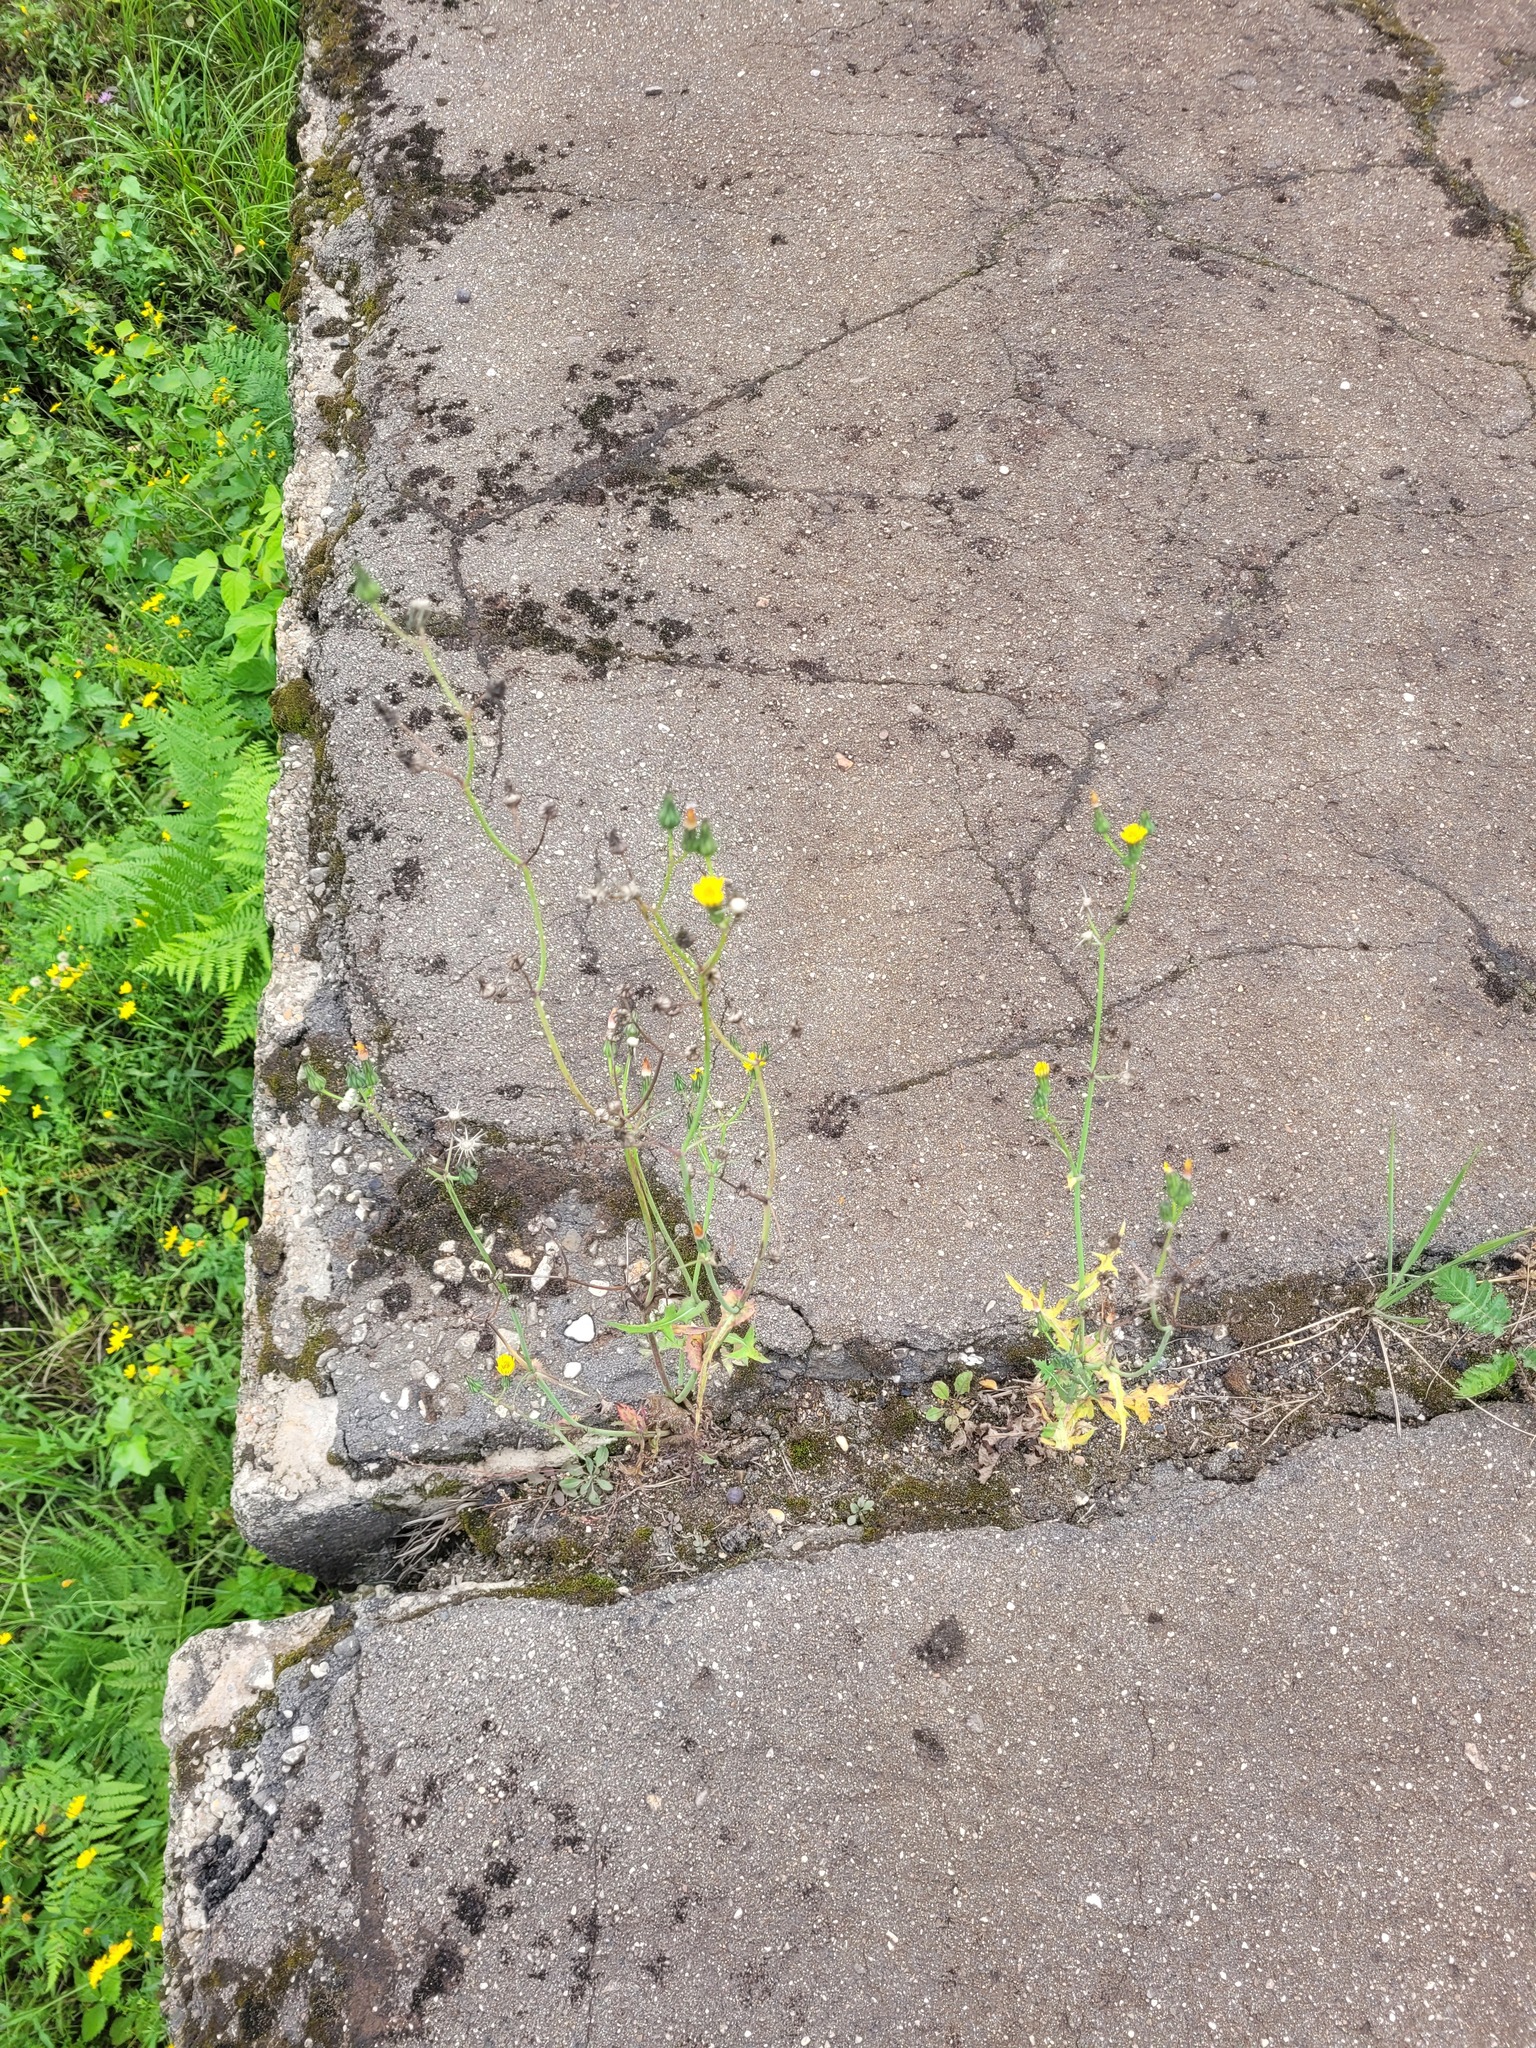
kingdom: Plantae
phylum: Tracheophyta
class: Magnoliopsida
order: Asterales
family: Asteraceae
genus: Sonchus
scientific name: Sonchus oleraceus
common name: Common sowthistle
